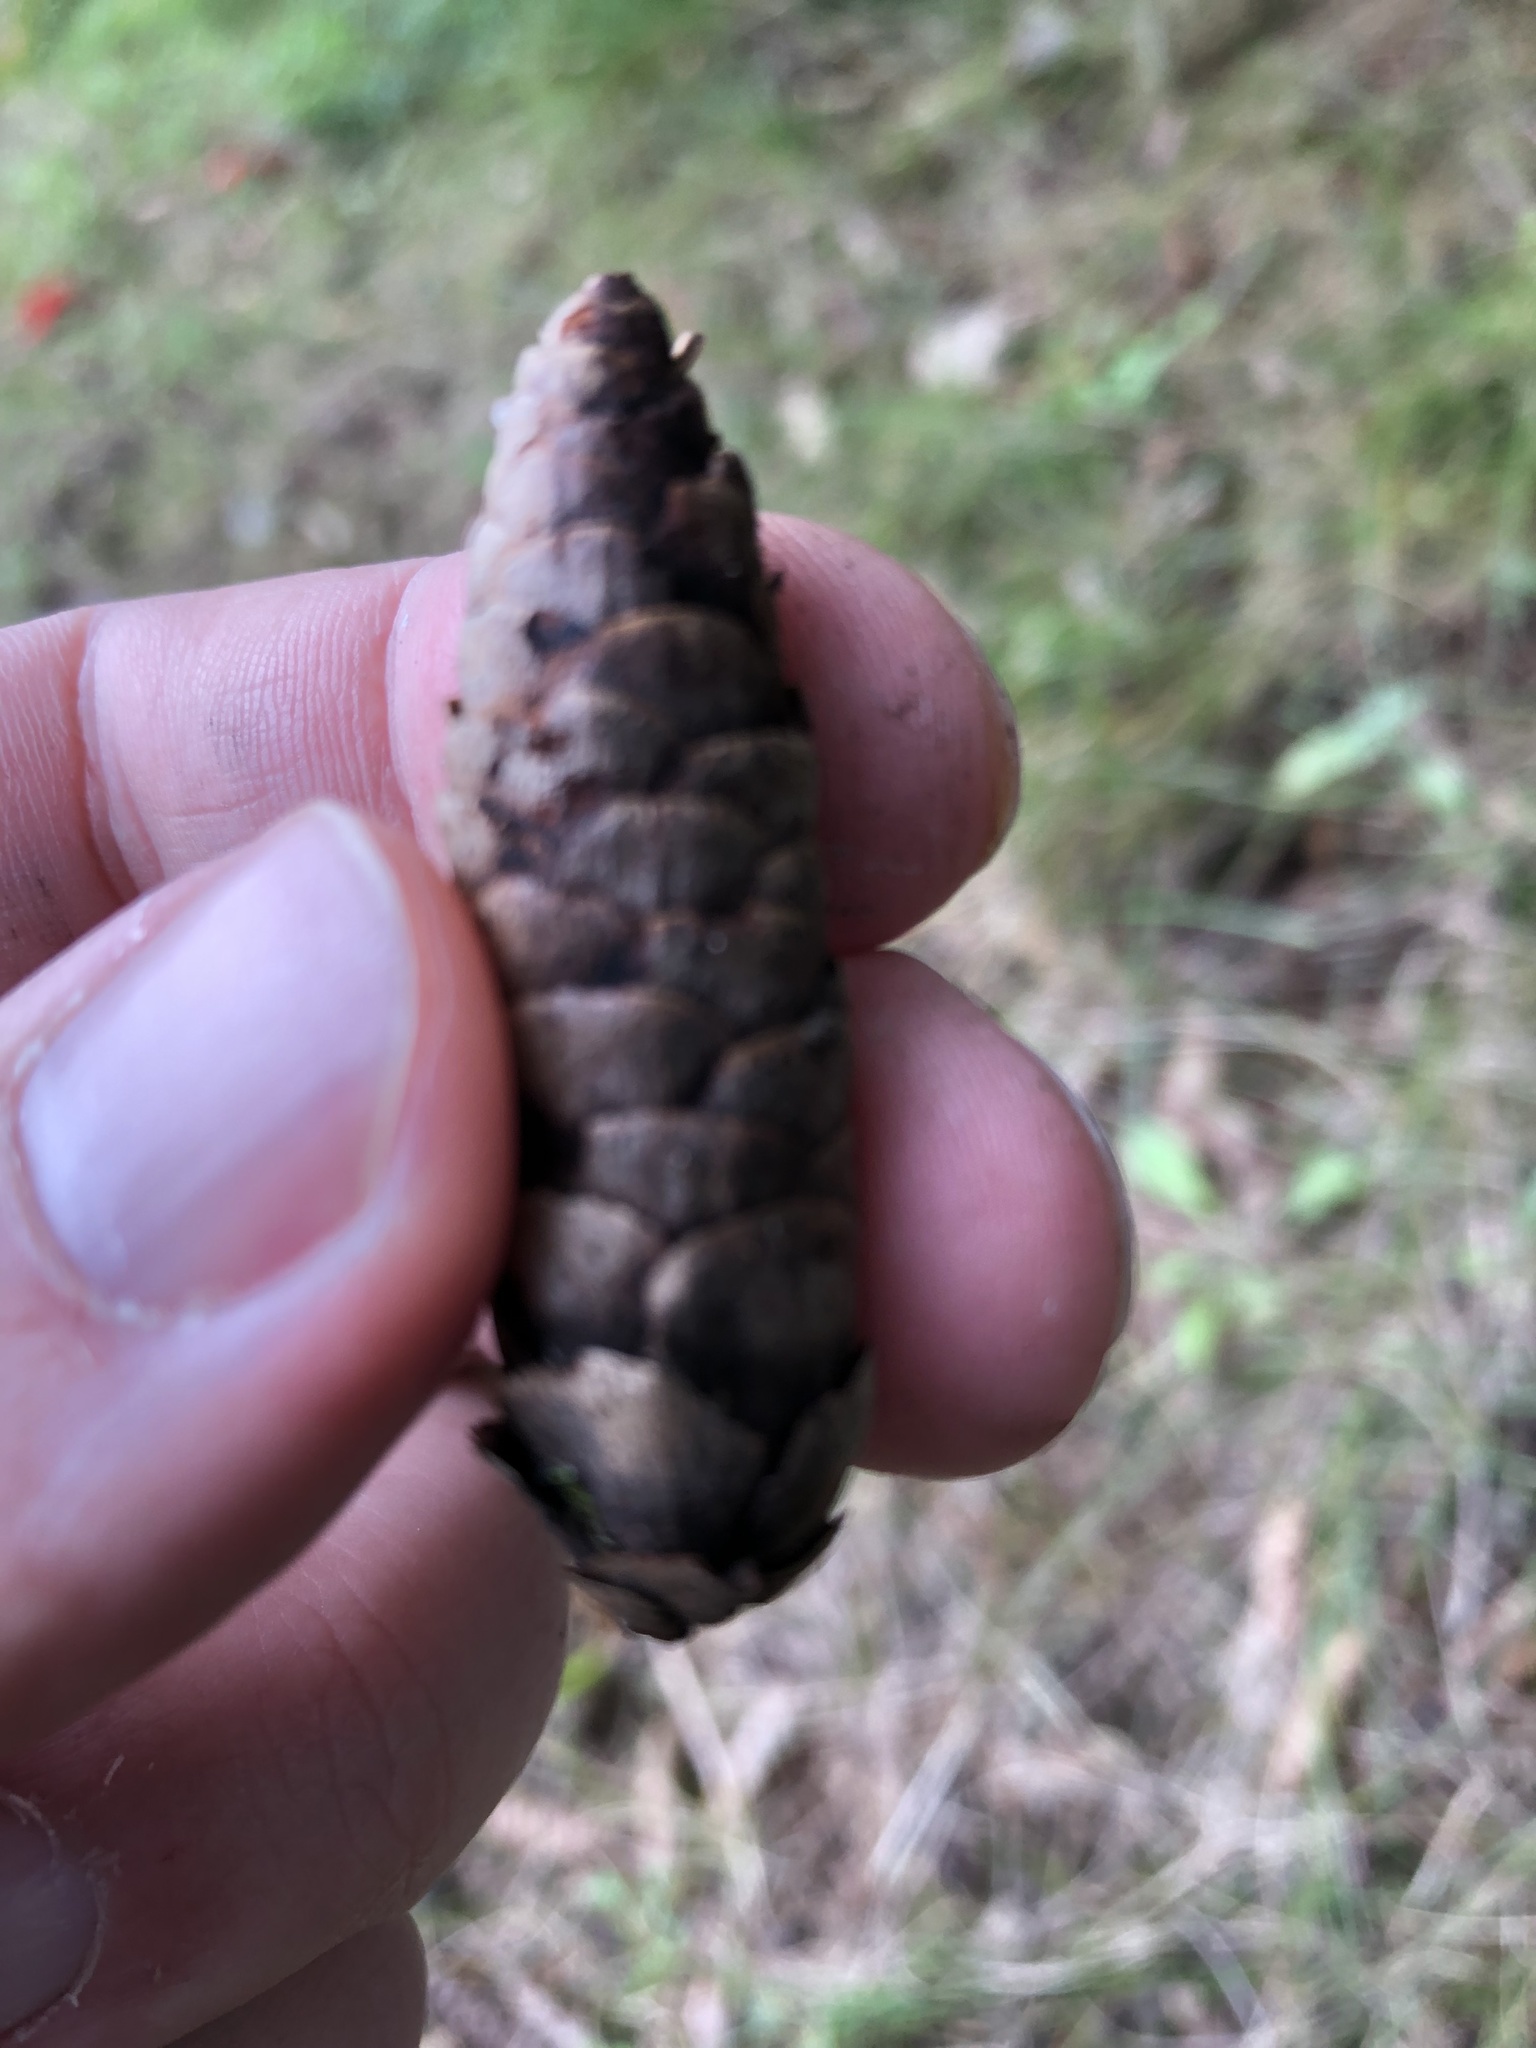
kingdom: Plantae
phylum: Tracheophyta
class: Pinopsida
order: Pinales
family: Pinaceae
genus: Picea
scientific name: Picea glauca
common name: White spruce
